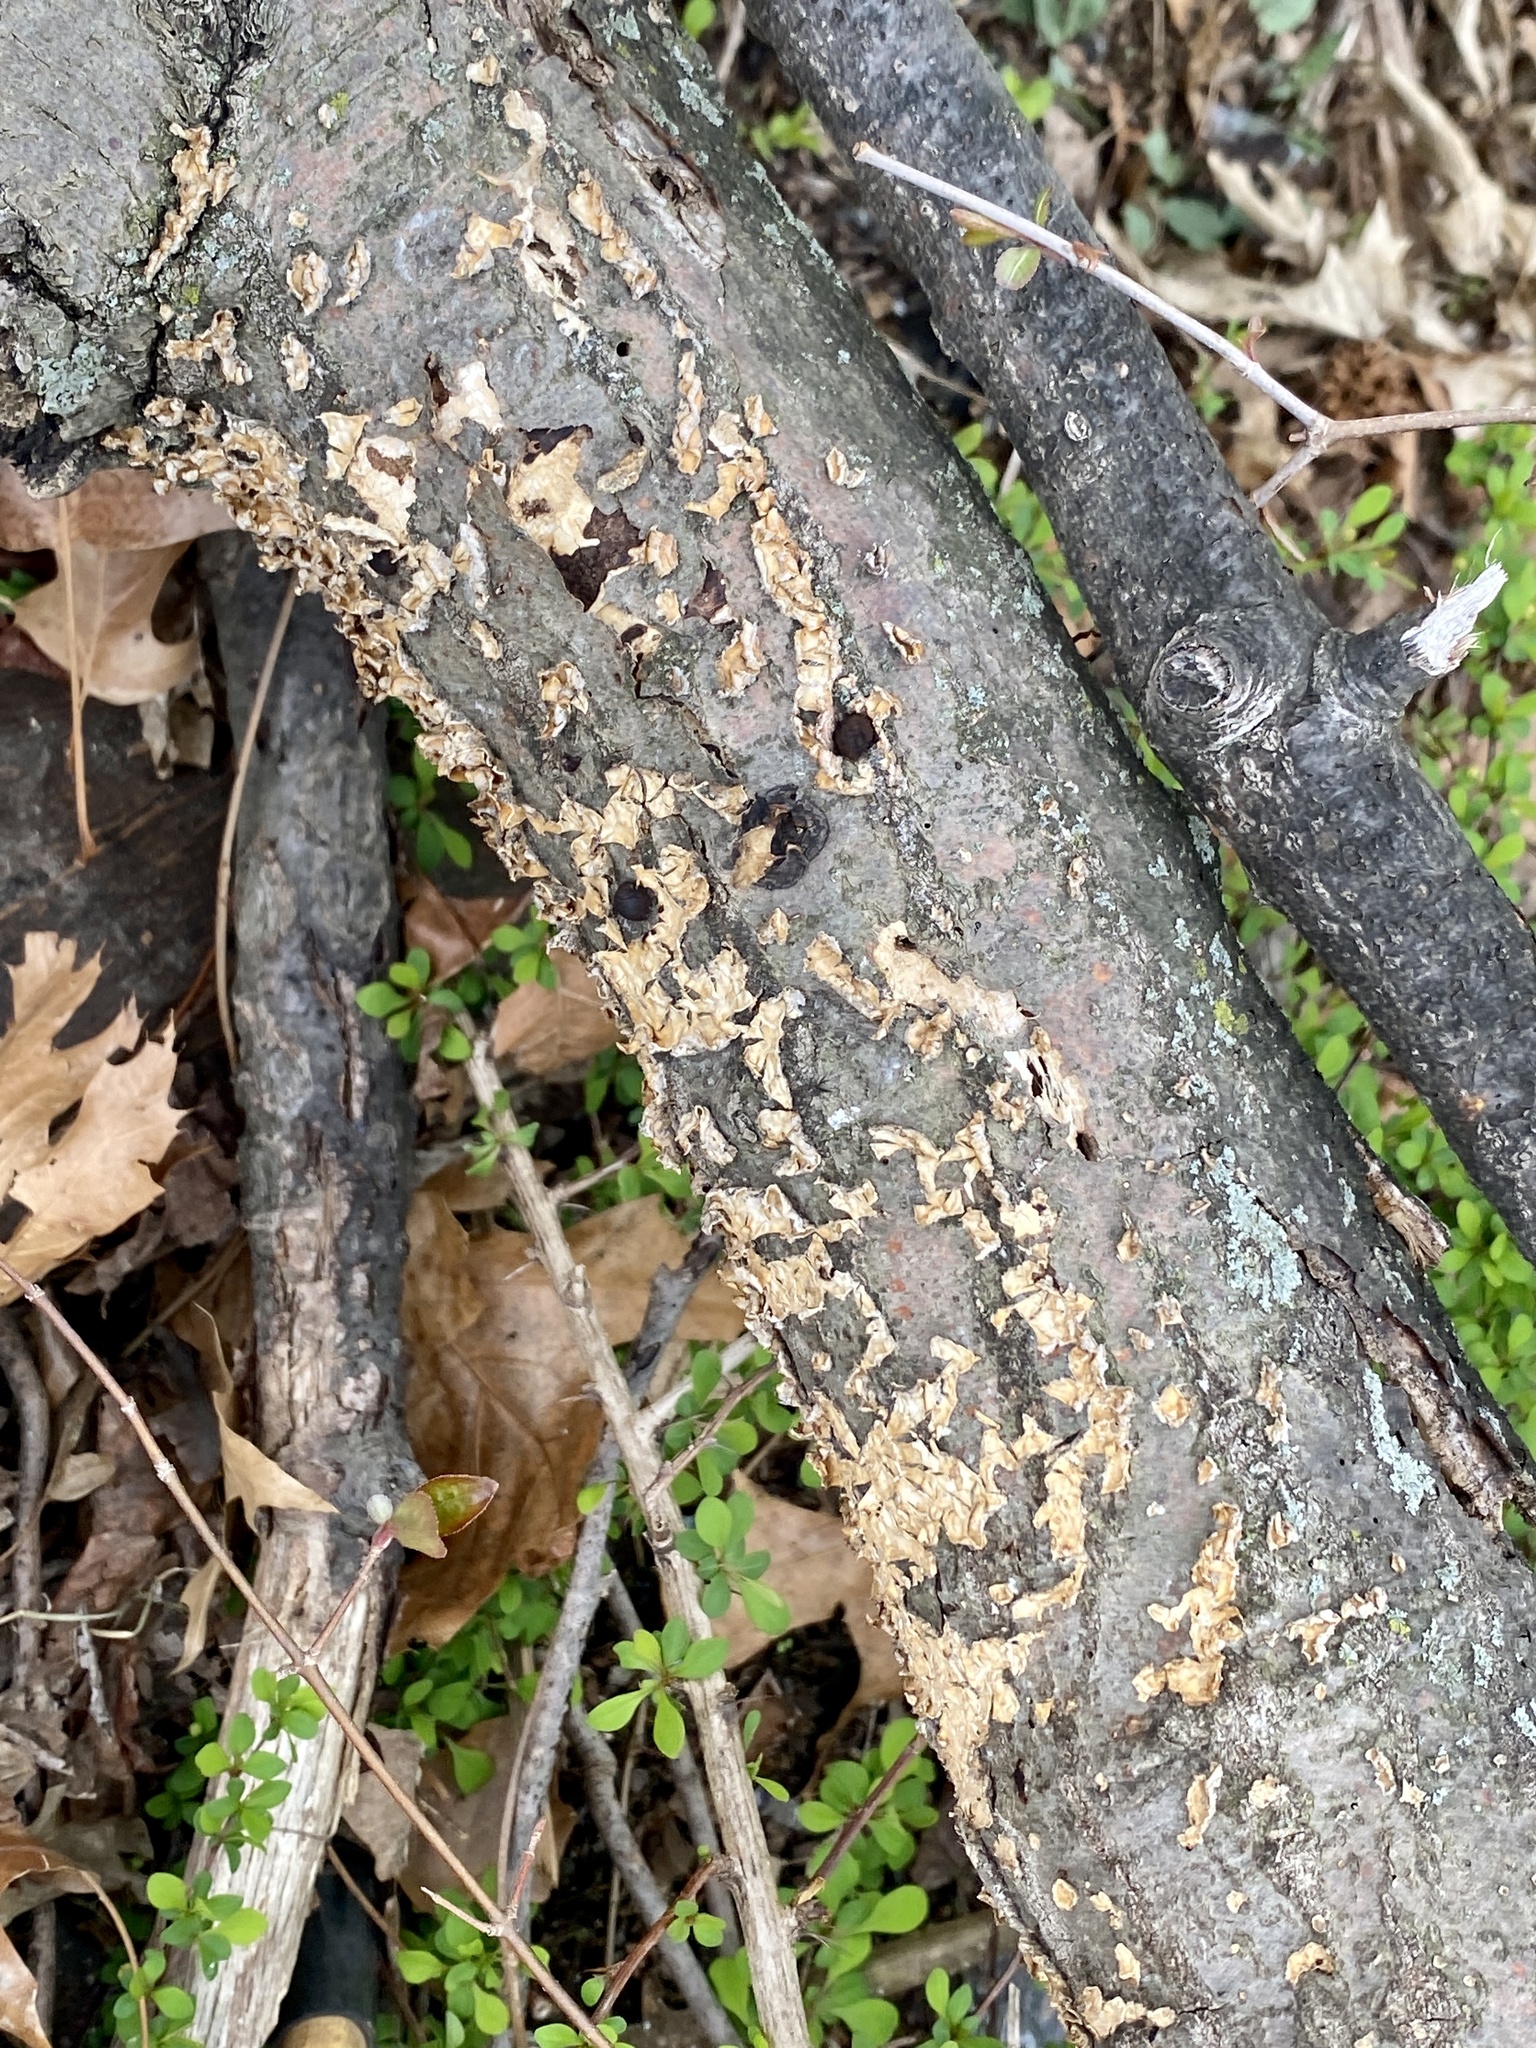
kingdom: Fungi
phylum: Basidiomycota
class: Agaricomycetes
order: Russulales
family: Stereaceae
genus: Stereum
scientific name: Stereum complicatum
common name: Crowded parchment
